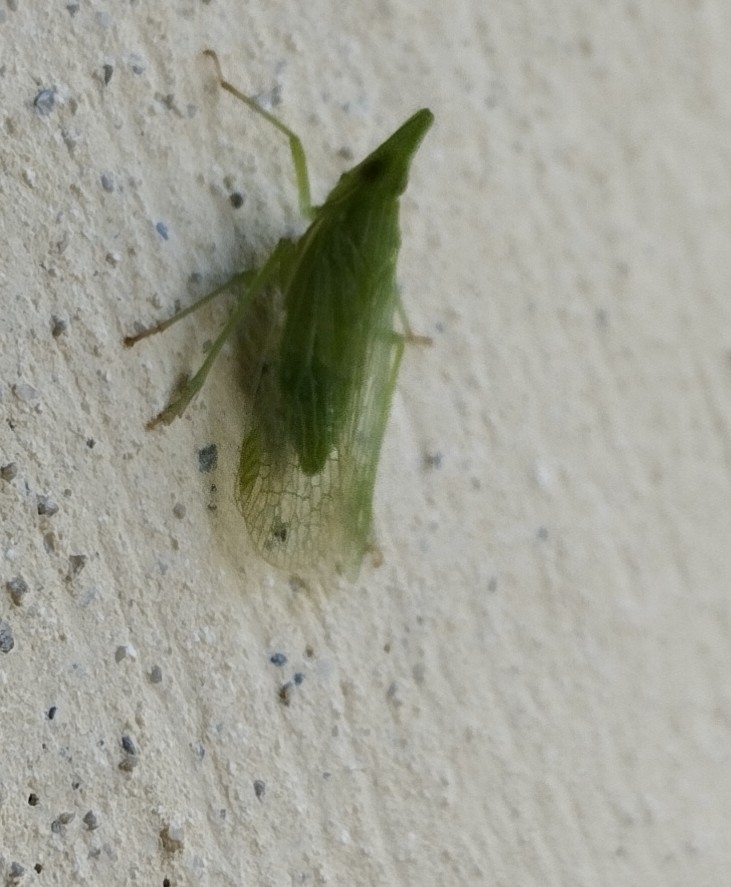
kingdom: Animalia
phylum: Arthropoda
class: Insecta
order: Hemiptera
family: Dictyopharidae
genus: Dictyophara
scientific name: Dictyophara europaea
